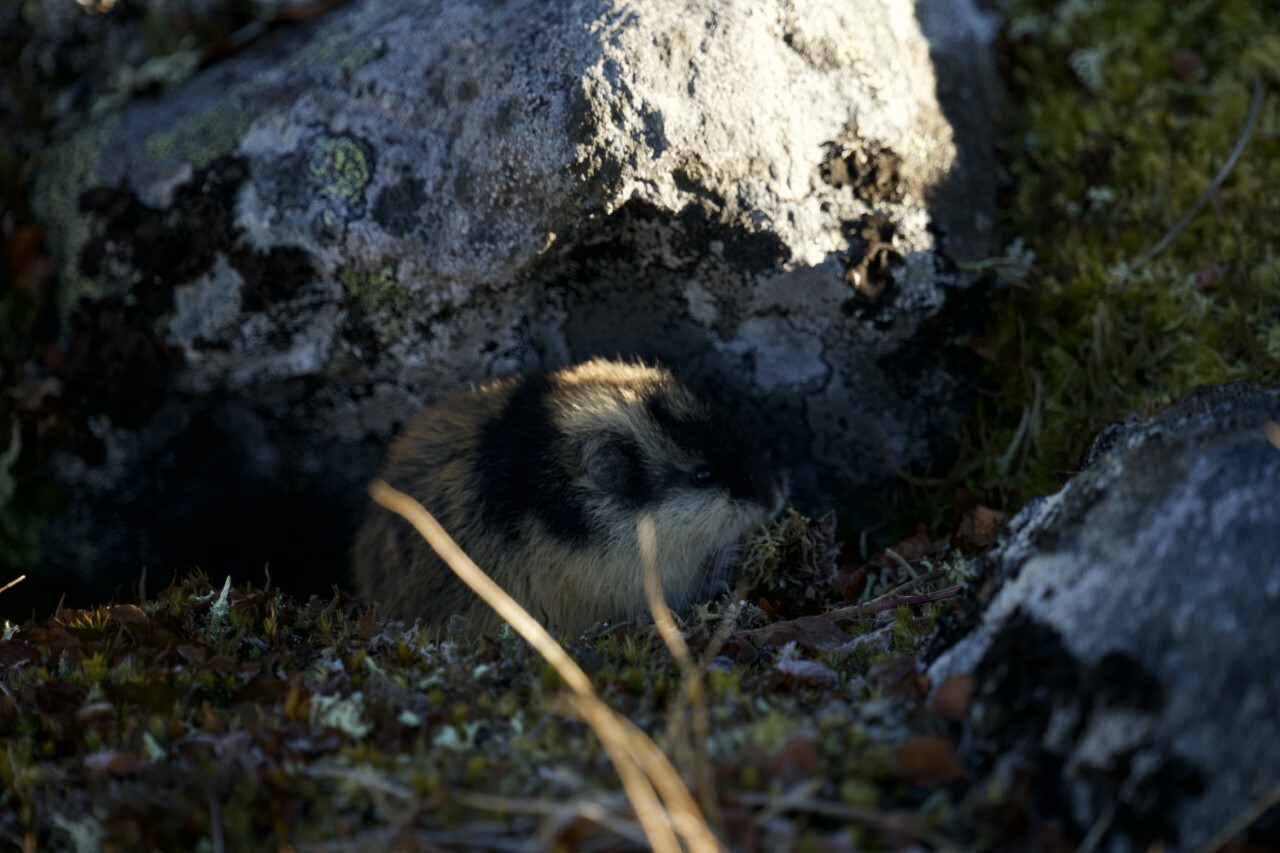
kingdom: Animalia
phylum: Chordata
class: Mammalia
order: Rodentia
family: Cricetidae
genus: Lemmus
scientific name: Lemmus lemmus
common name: Norway lemming
